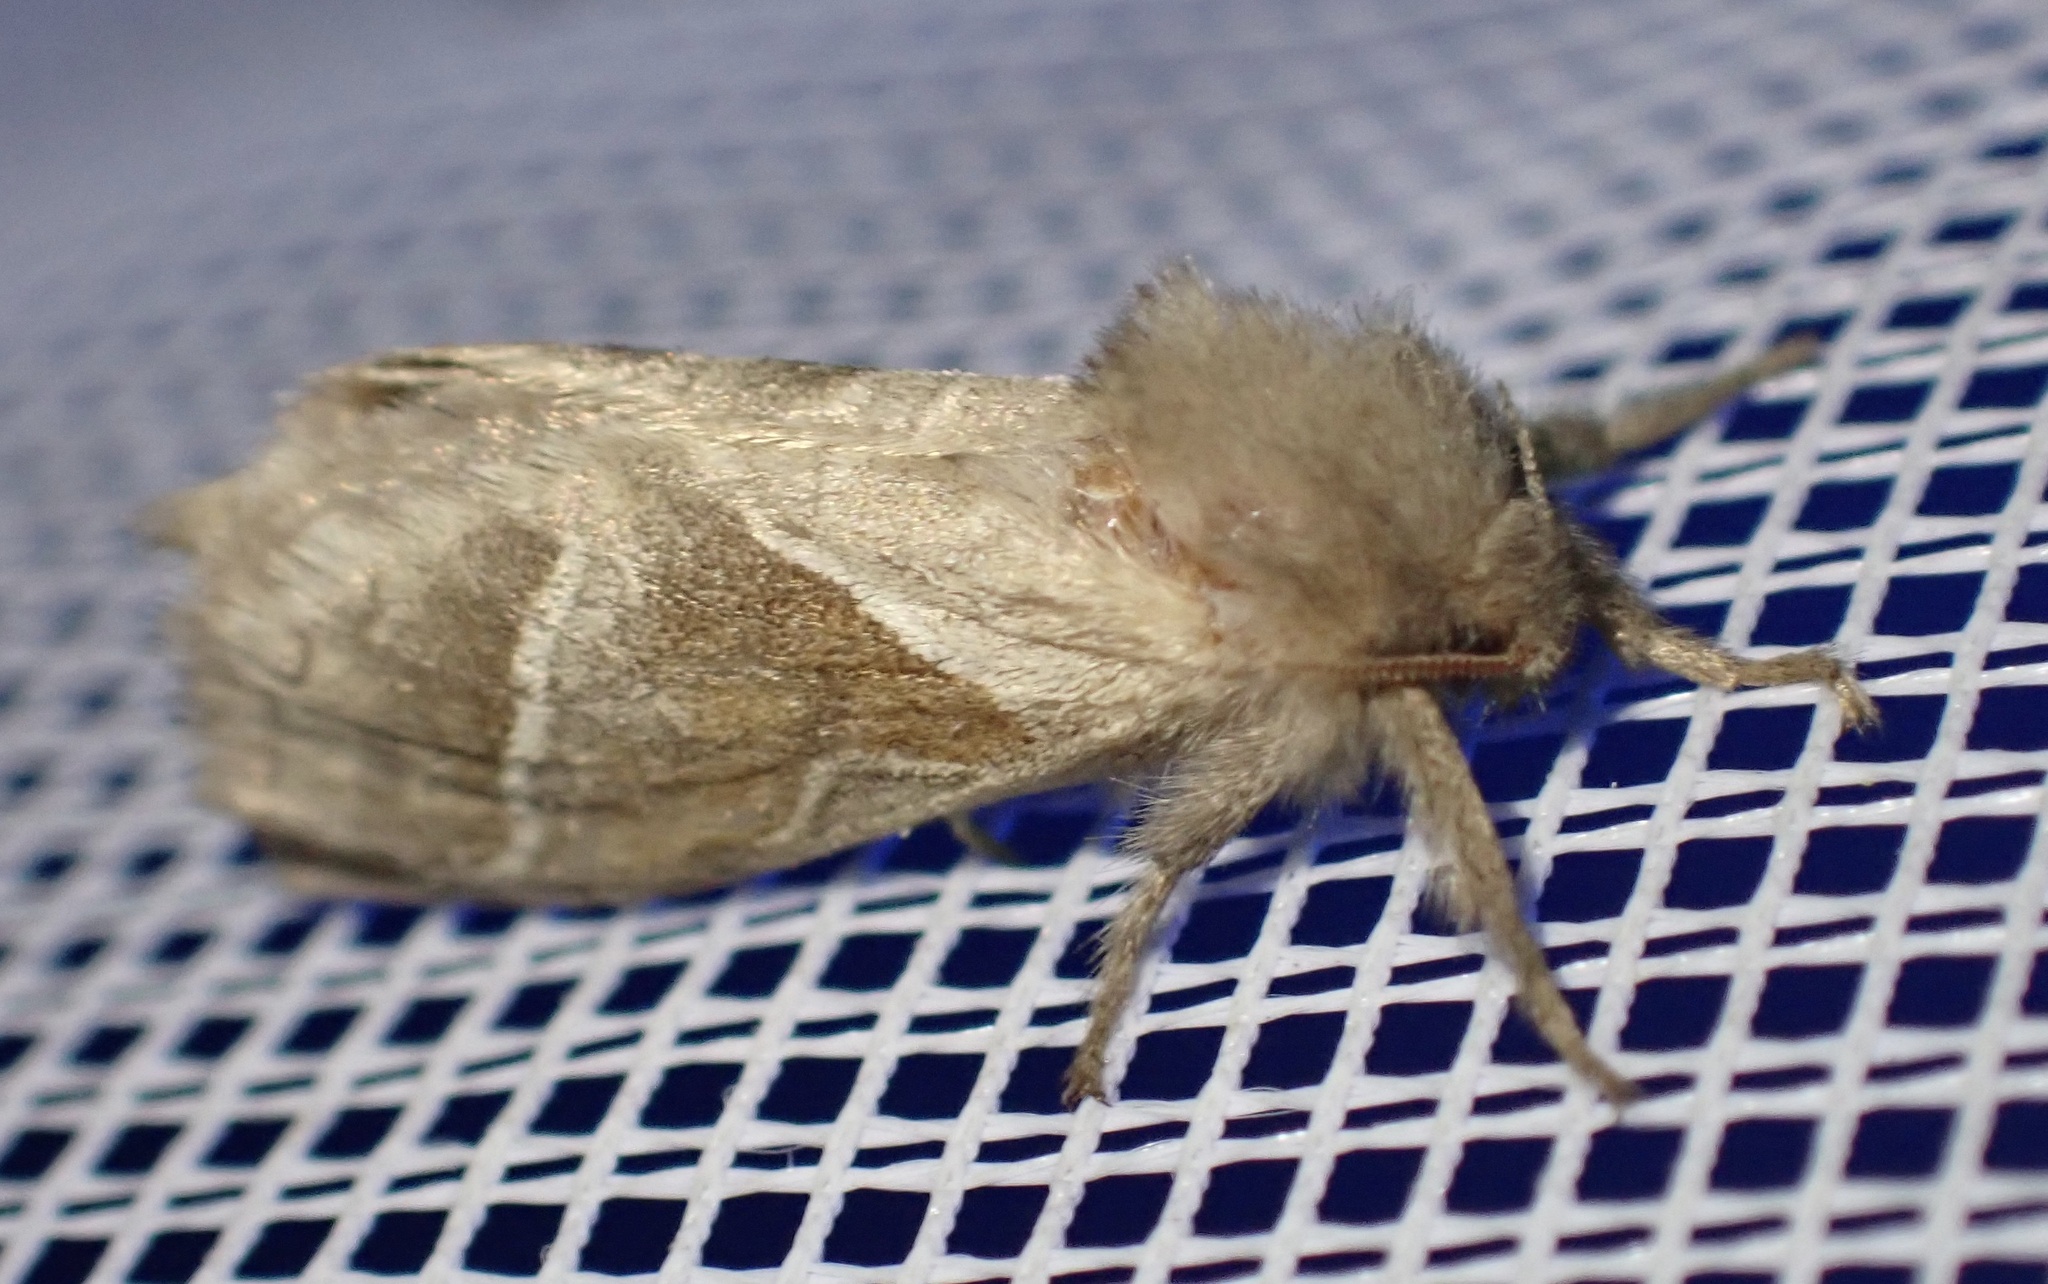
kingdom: Animalia
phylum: Arthropoda
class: Insecta
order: Lepidoptera
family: Hepialidae
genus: Triodia
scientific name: Triodia sylvina
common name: Orange swift
